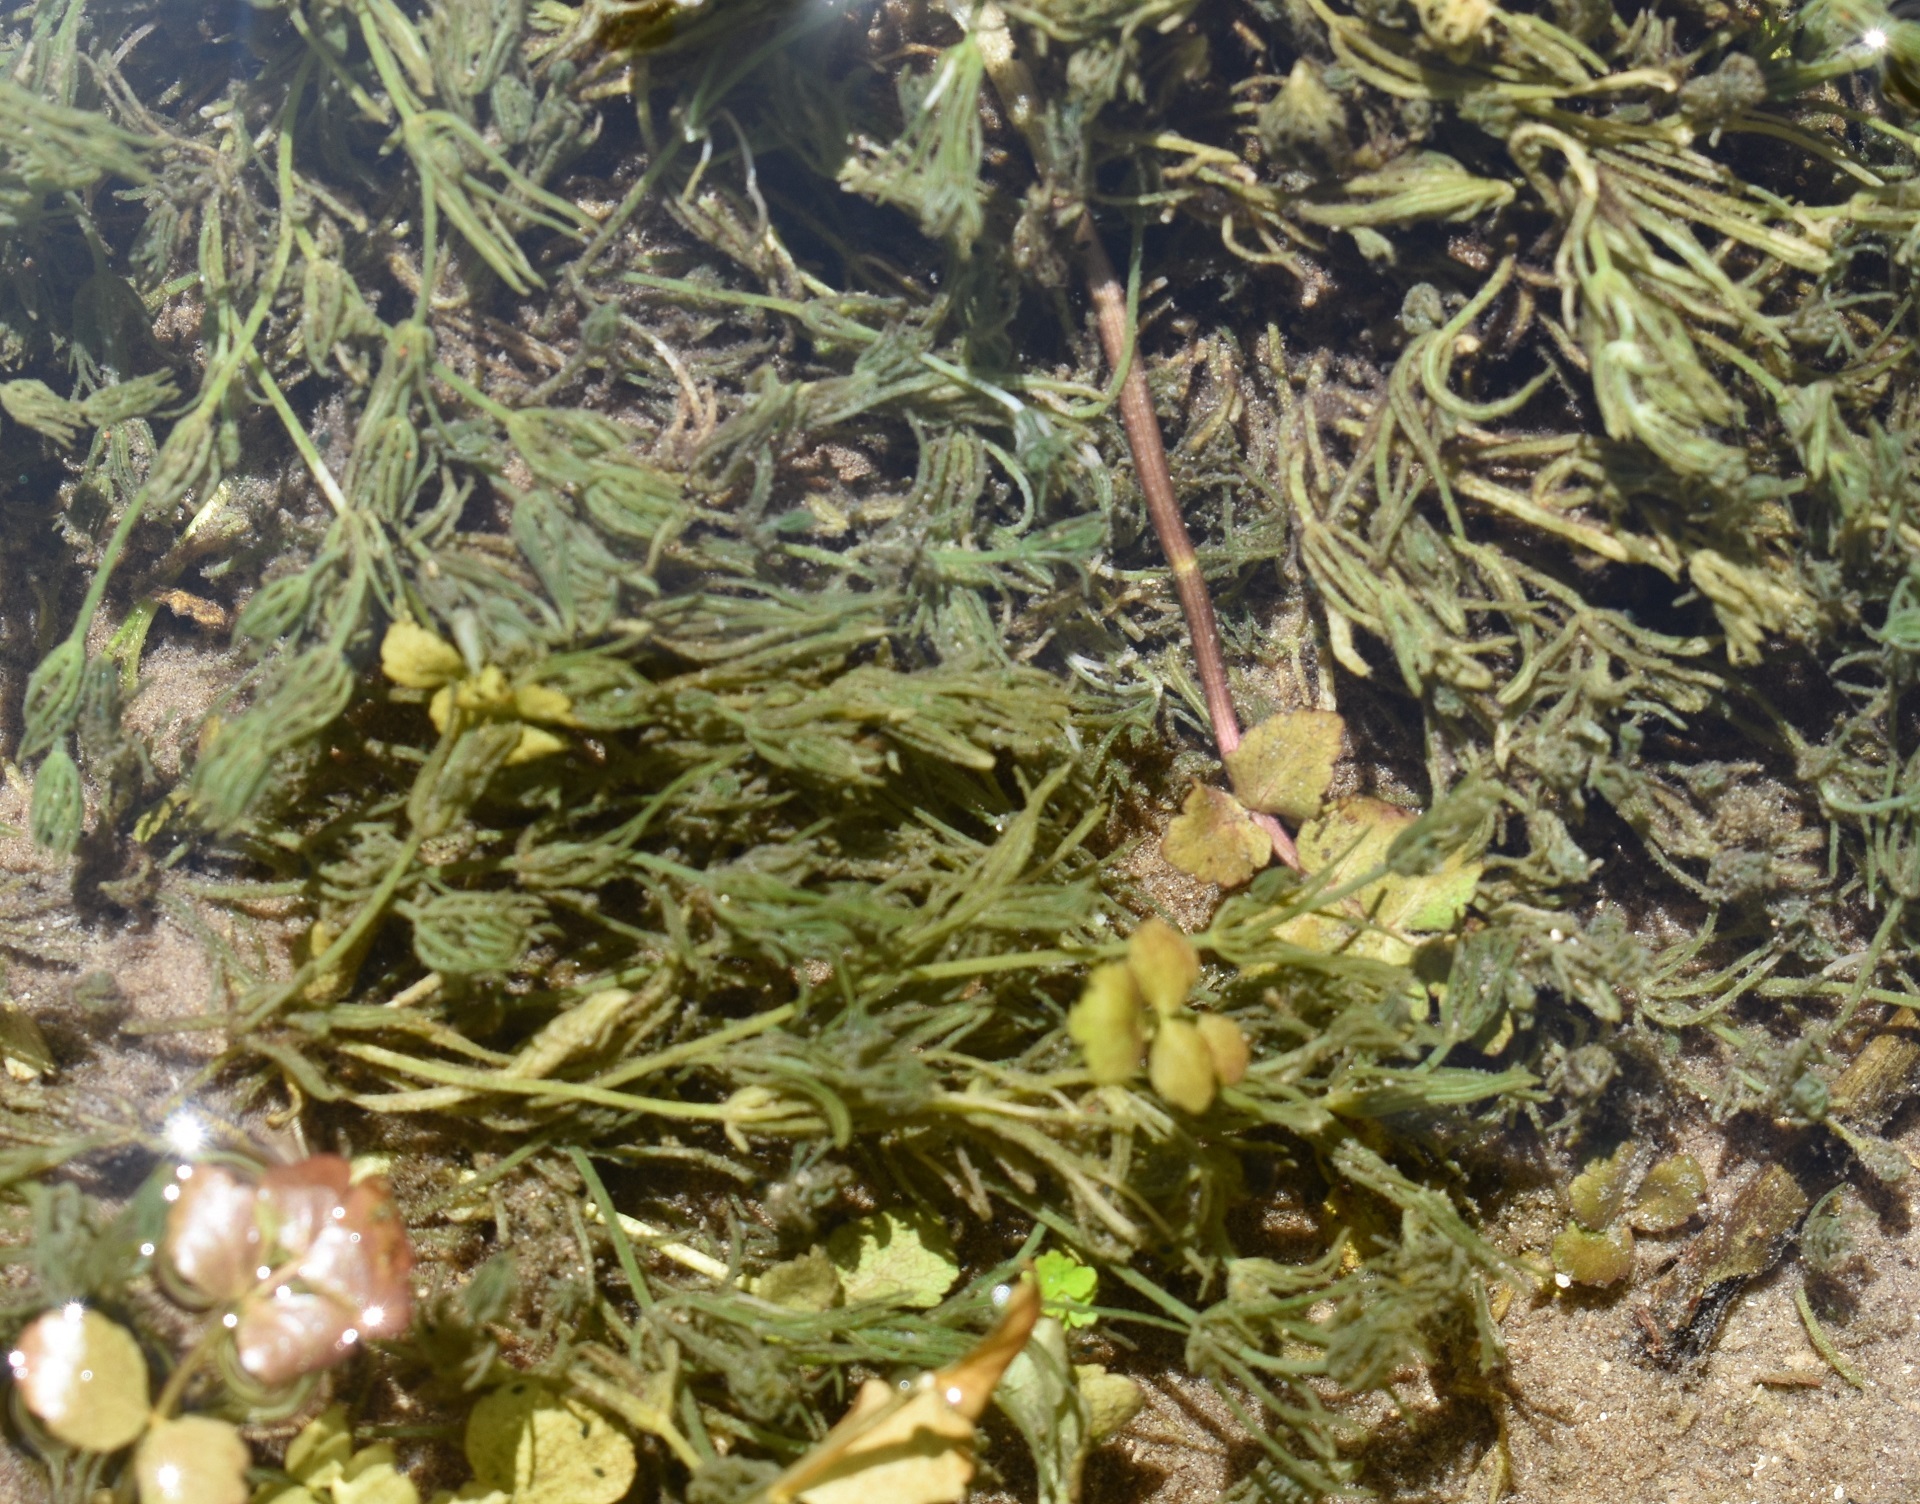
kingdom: Plantae
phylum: Charophyta
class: Charophyceae
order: Charales
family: Characeae
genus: Chara
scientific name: Chara
